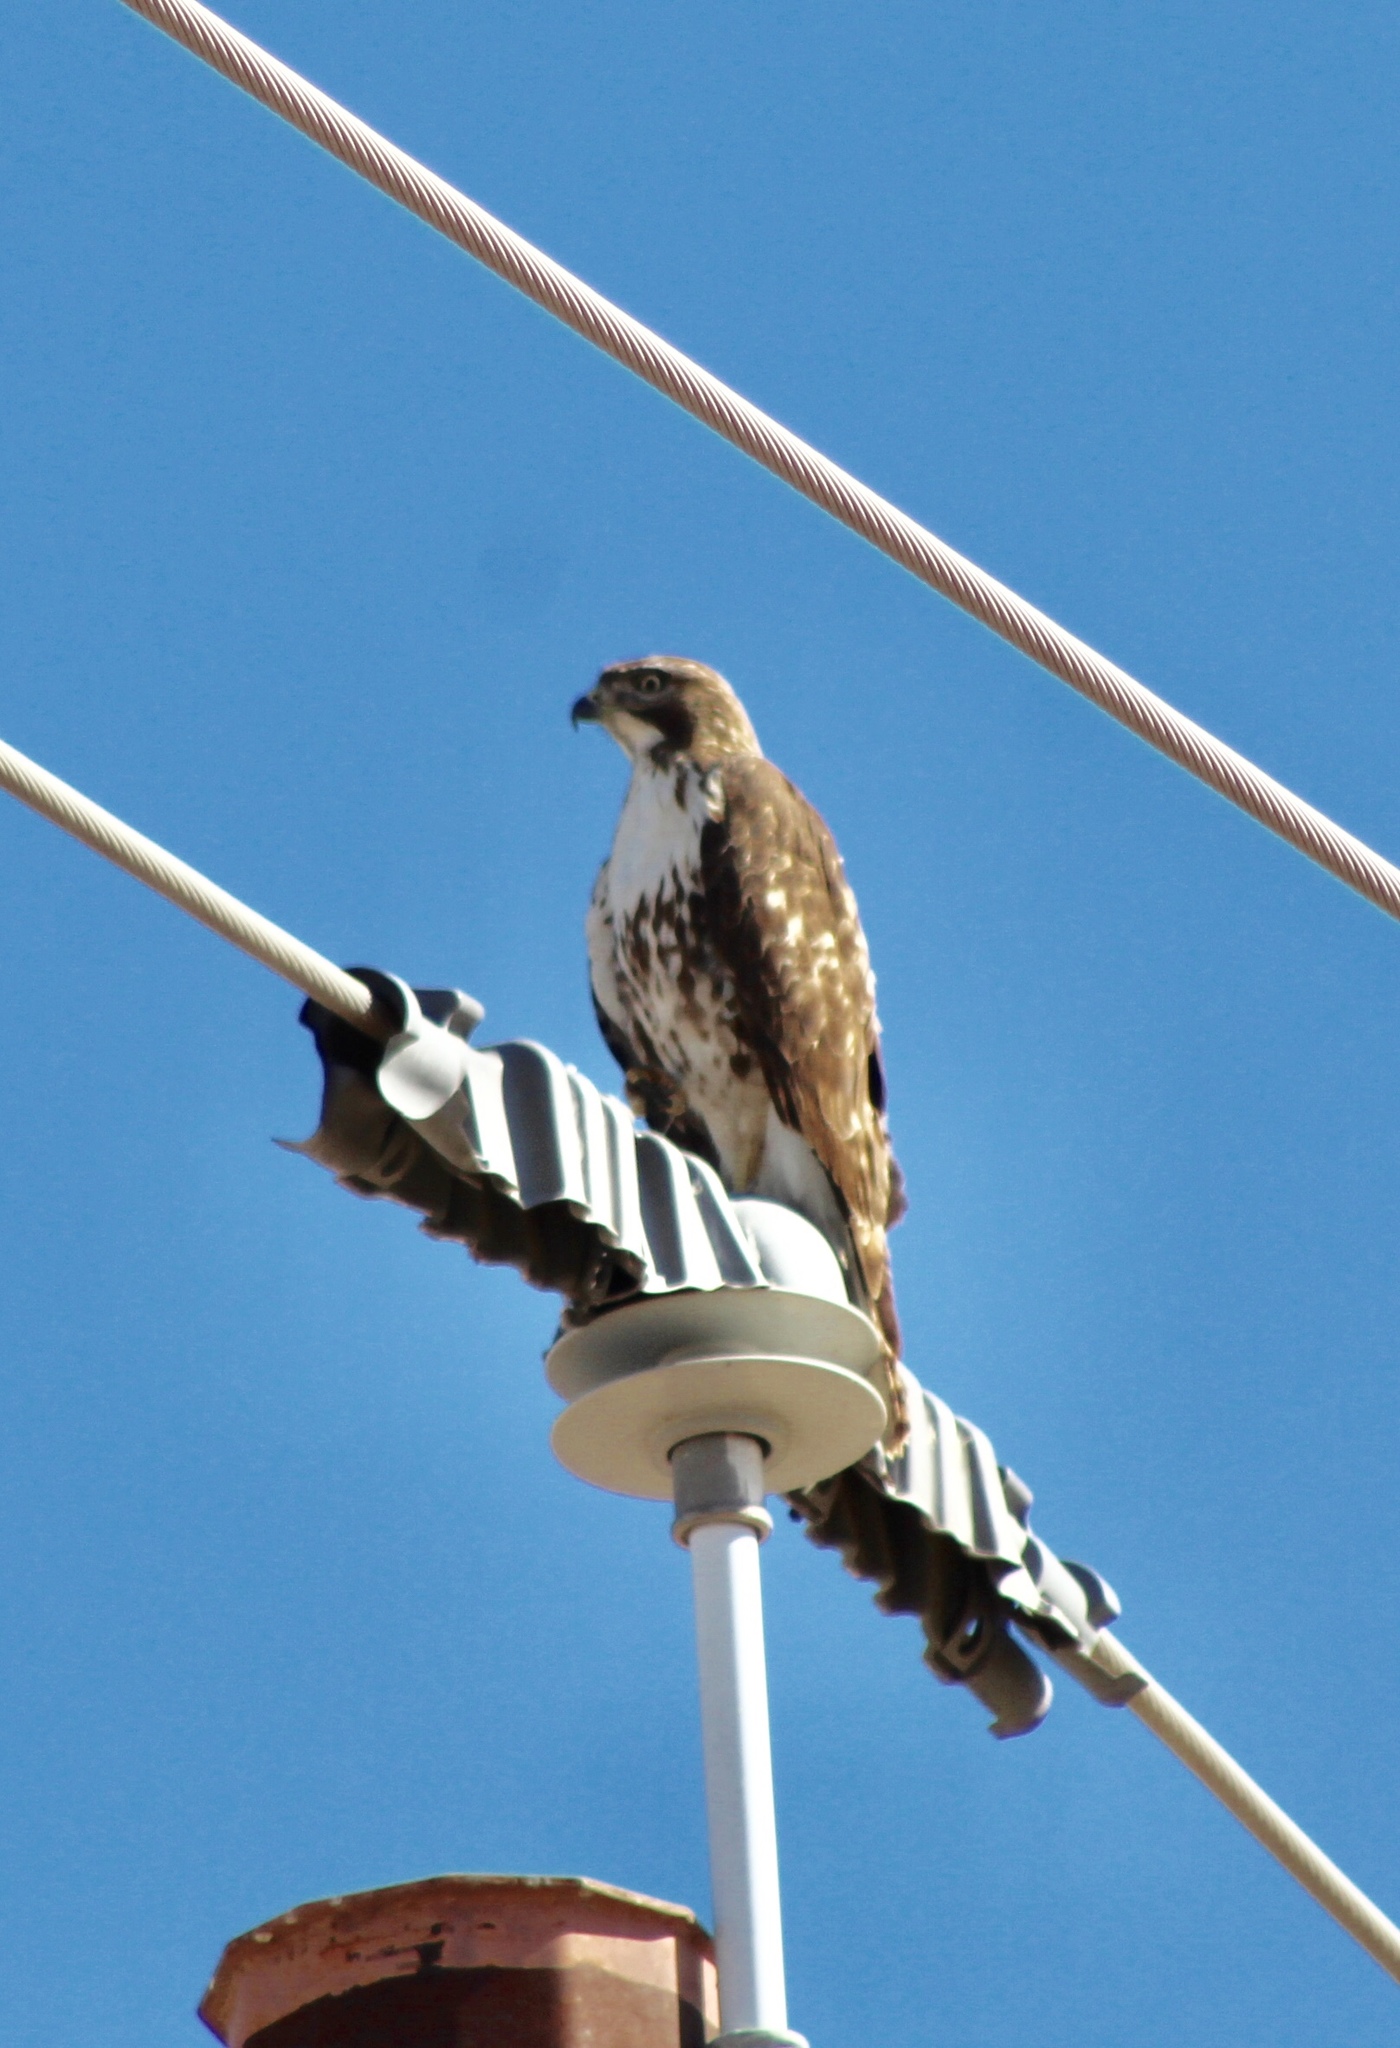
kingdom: Animalia
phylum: Chordata
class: Aves
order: Accipitriformes
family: Accipitridae
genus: Buteo
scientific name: Buteo jamaicensis
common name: Red-tailed hawk
